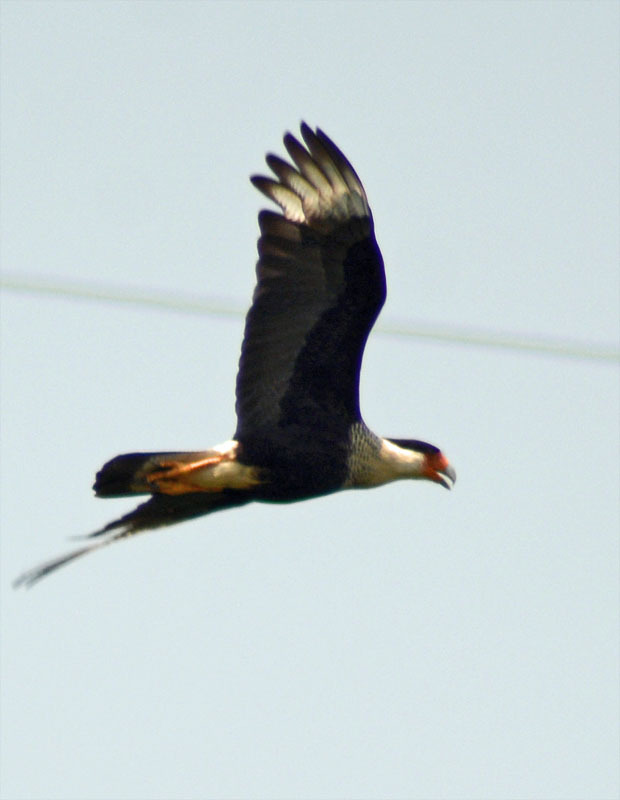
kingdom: Animalia
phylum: Chordata
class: Aves
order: Falconiformes
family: Falconidae
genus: Caracara
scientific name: Caracara plancus
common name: Southern caracara
